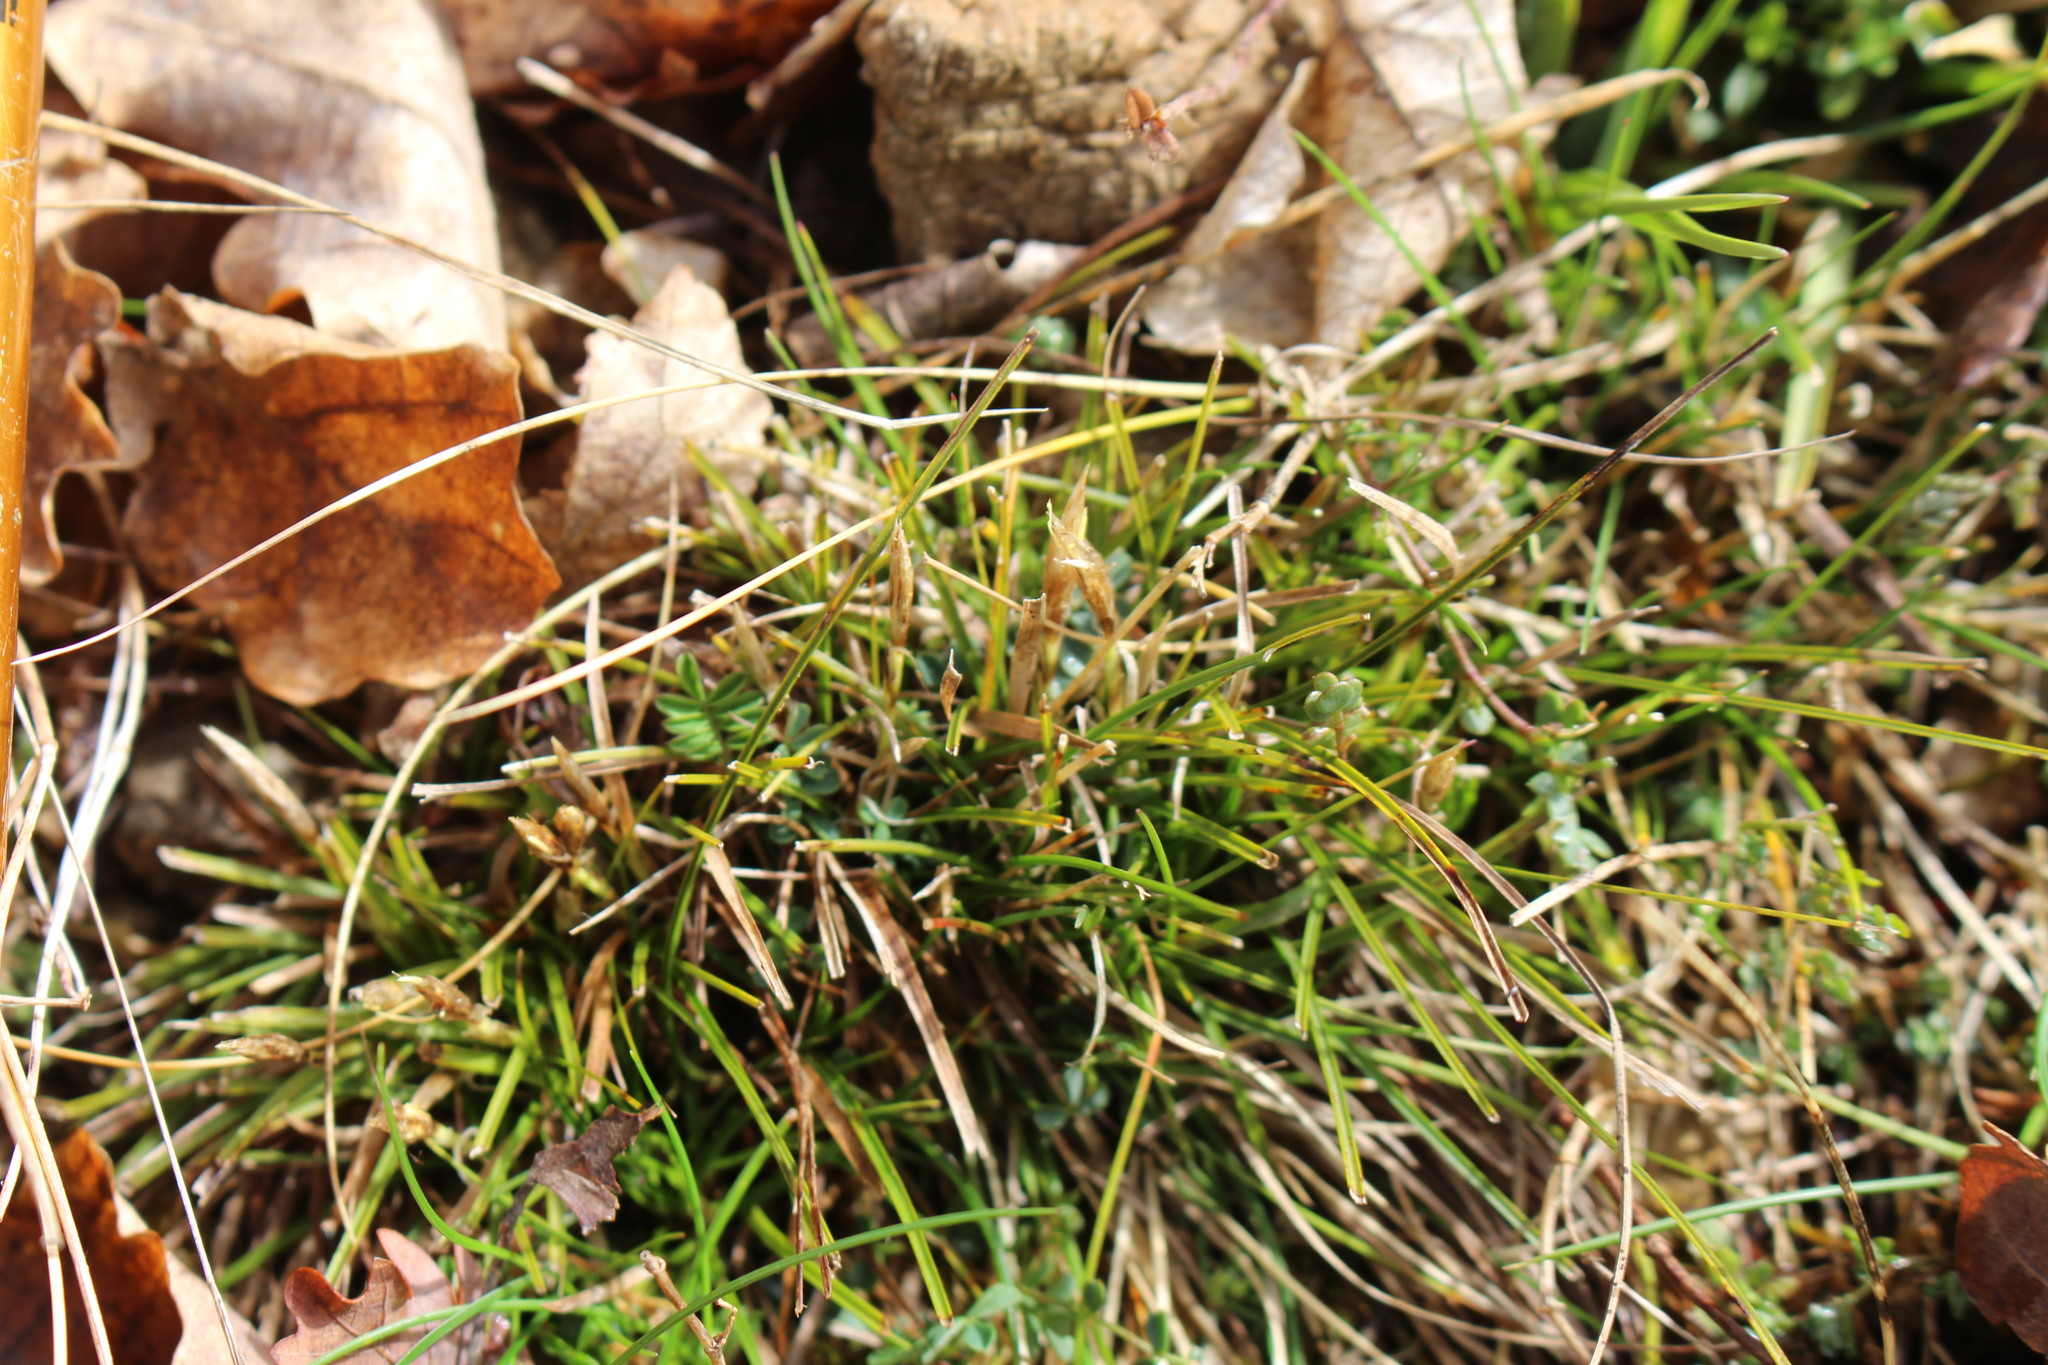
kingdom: Plantae
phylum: Tracheophyta
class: Liliopsida
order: Poales
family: Cyperaceae
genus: Carex
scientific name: Carex humilis
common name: Dwarf sedge
